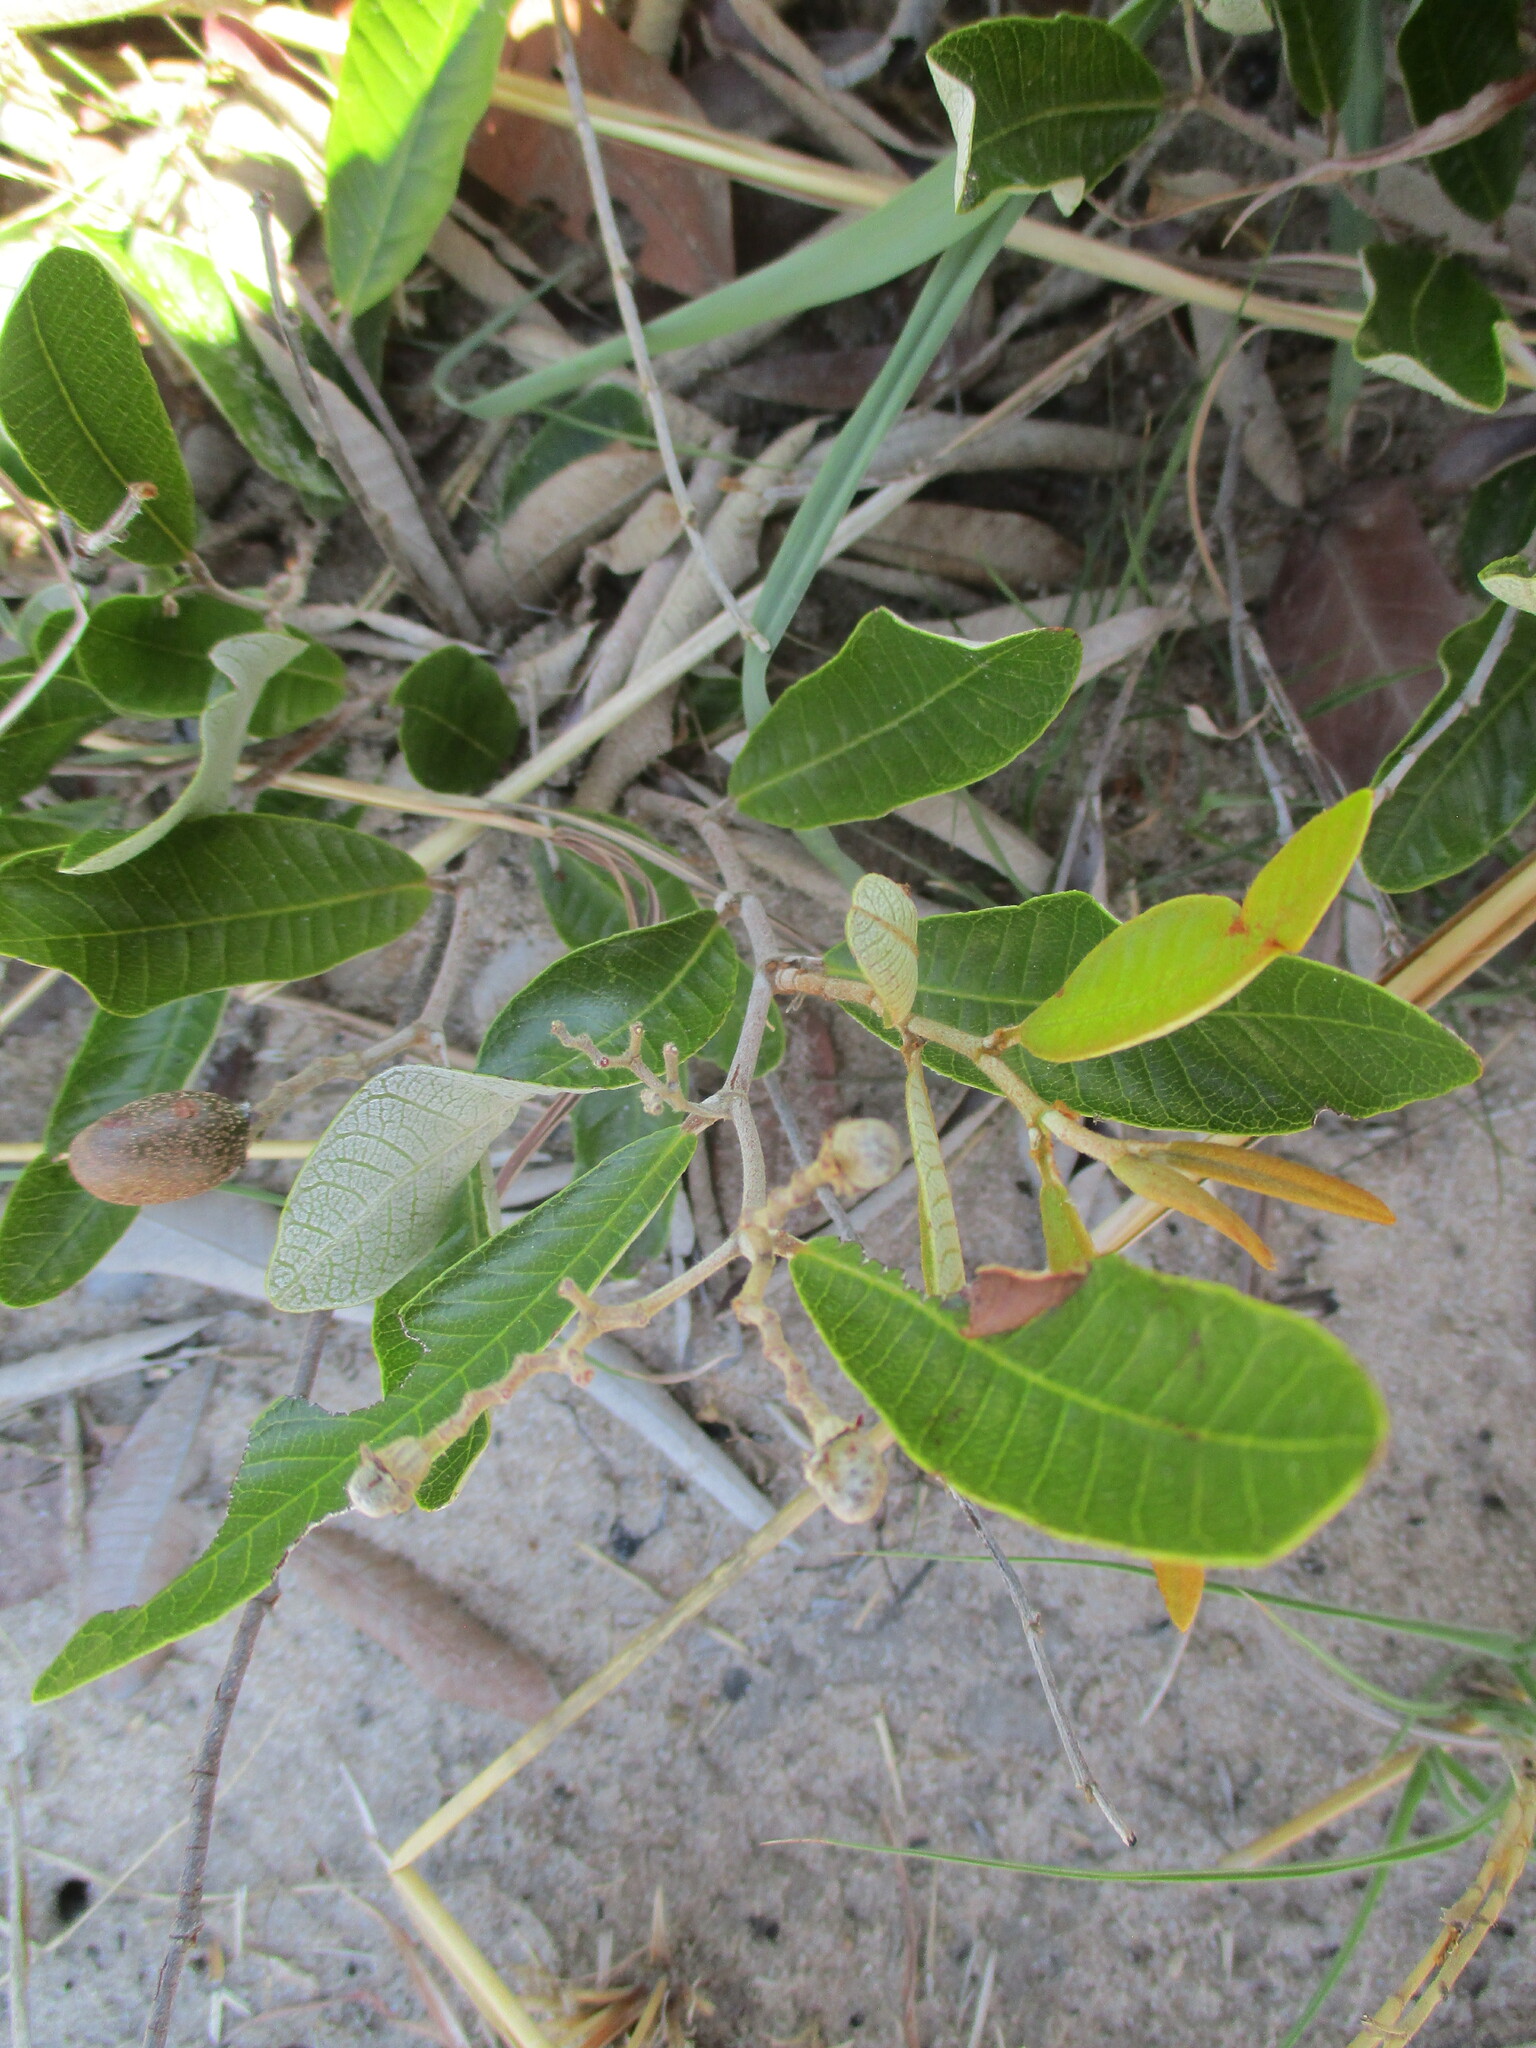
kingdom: Plantae
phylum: Tracheophyta
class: Magnoliopsida
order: Malpighiales
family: Chrysobalanaceae
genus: Parinari
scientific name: Parinari capensis
